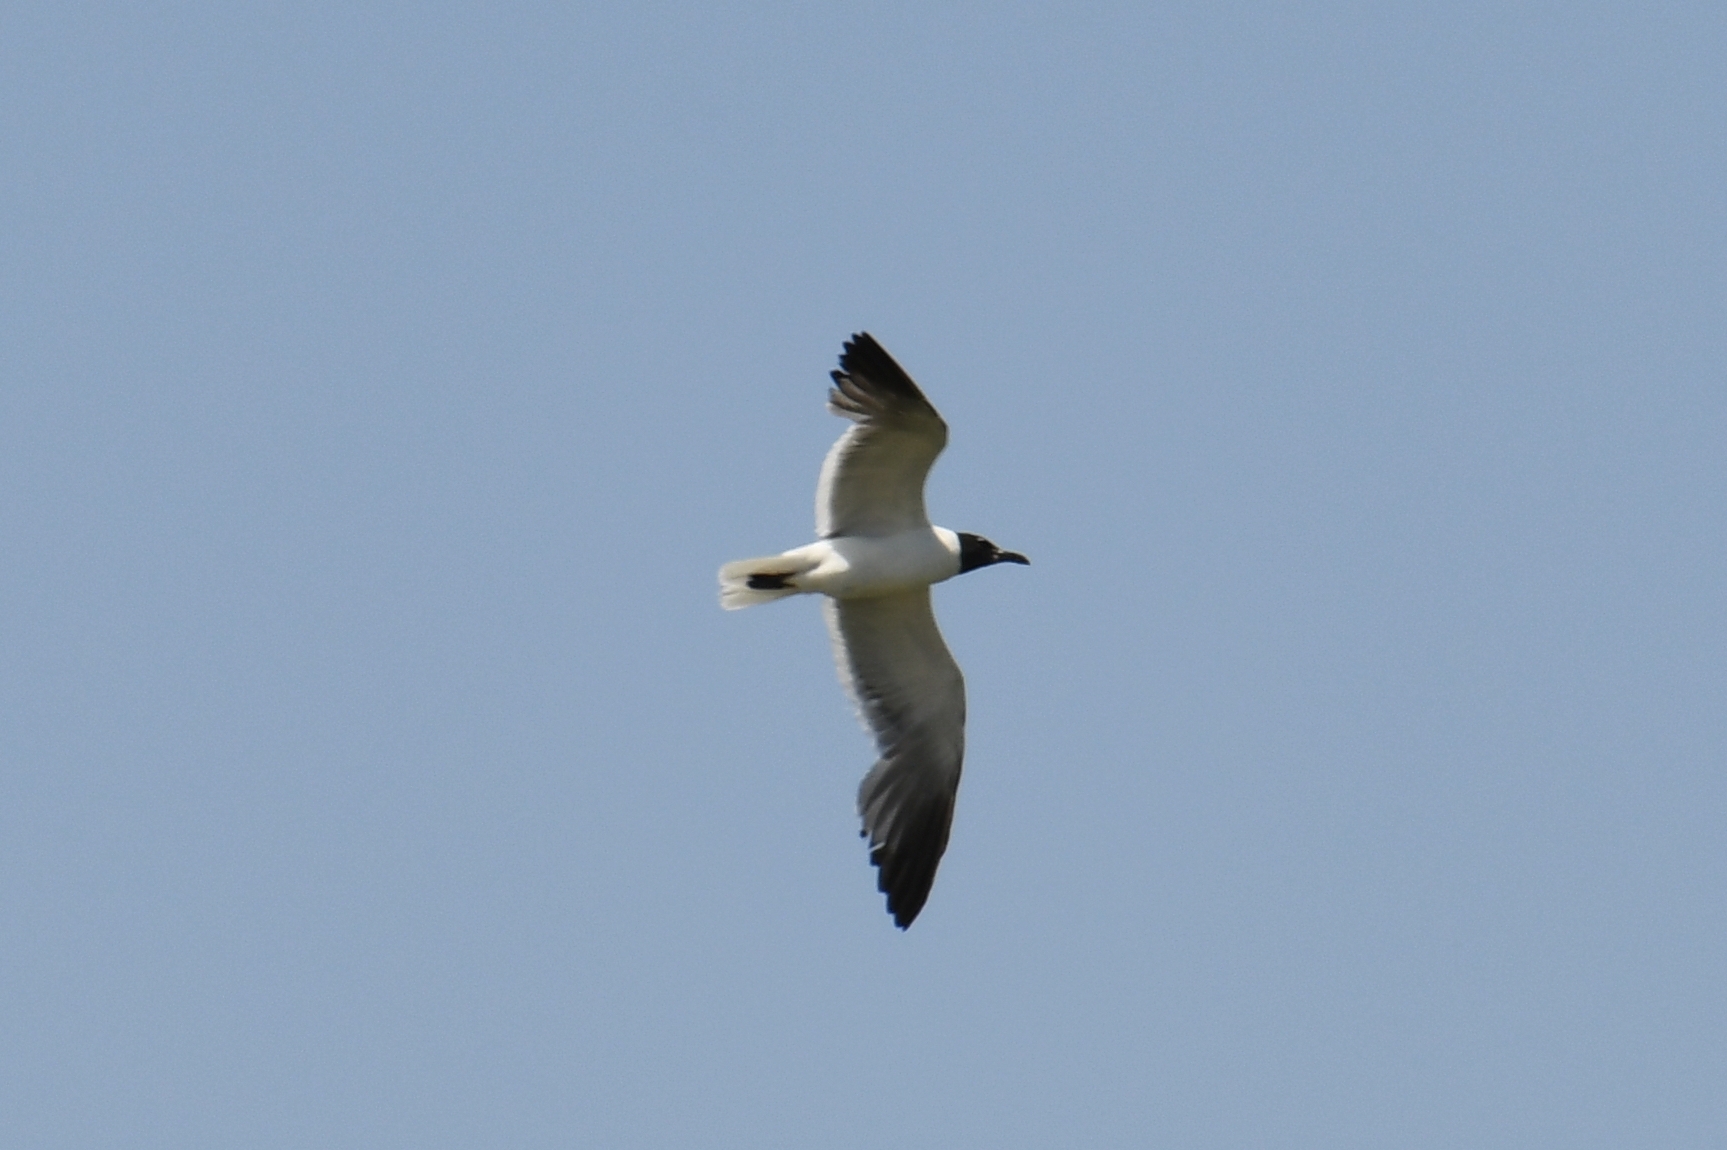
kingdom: Animalia
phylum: Chordata
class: Aves
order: Charadriiformes
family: Laridae
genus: Leucophaeus
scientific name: Leucophaeus atricilla
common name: Laughing gull
